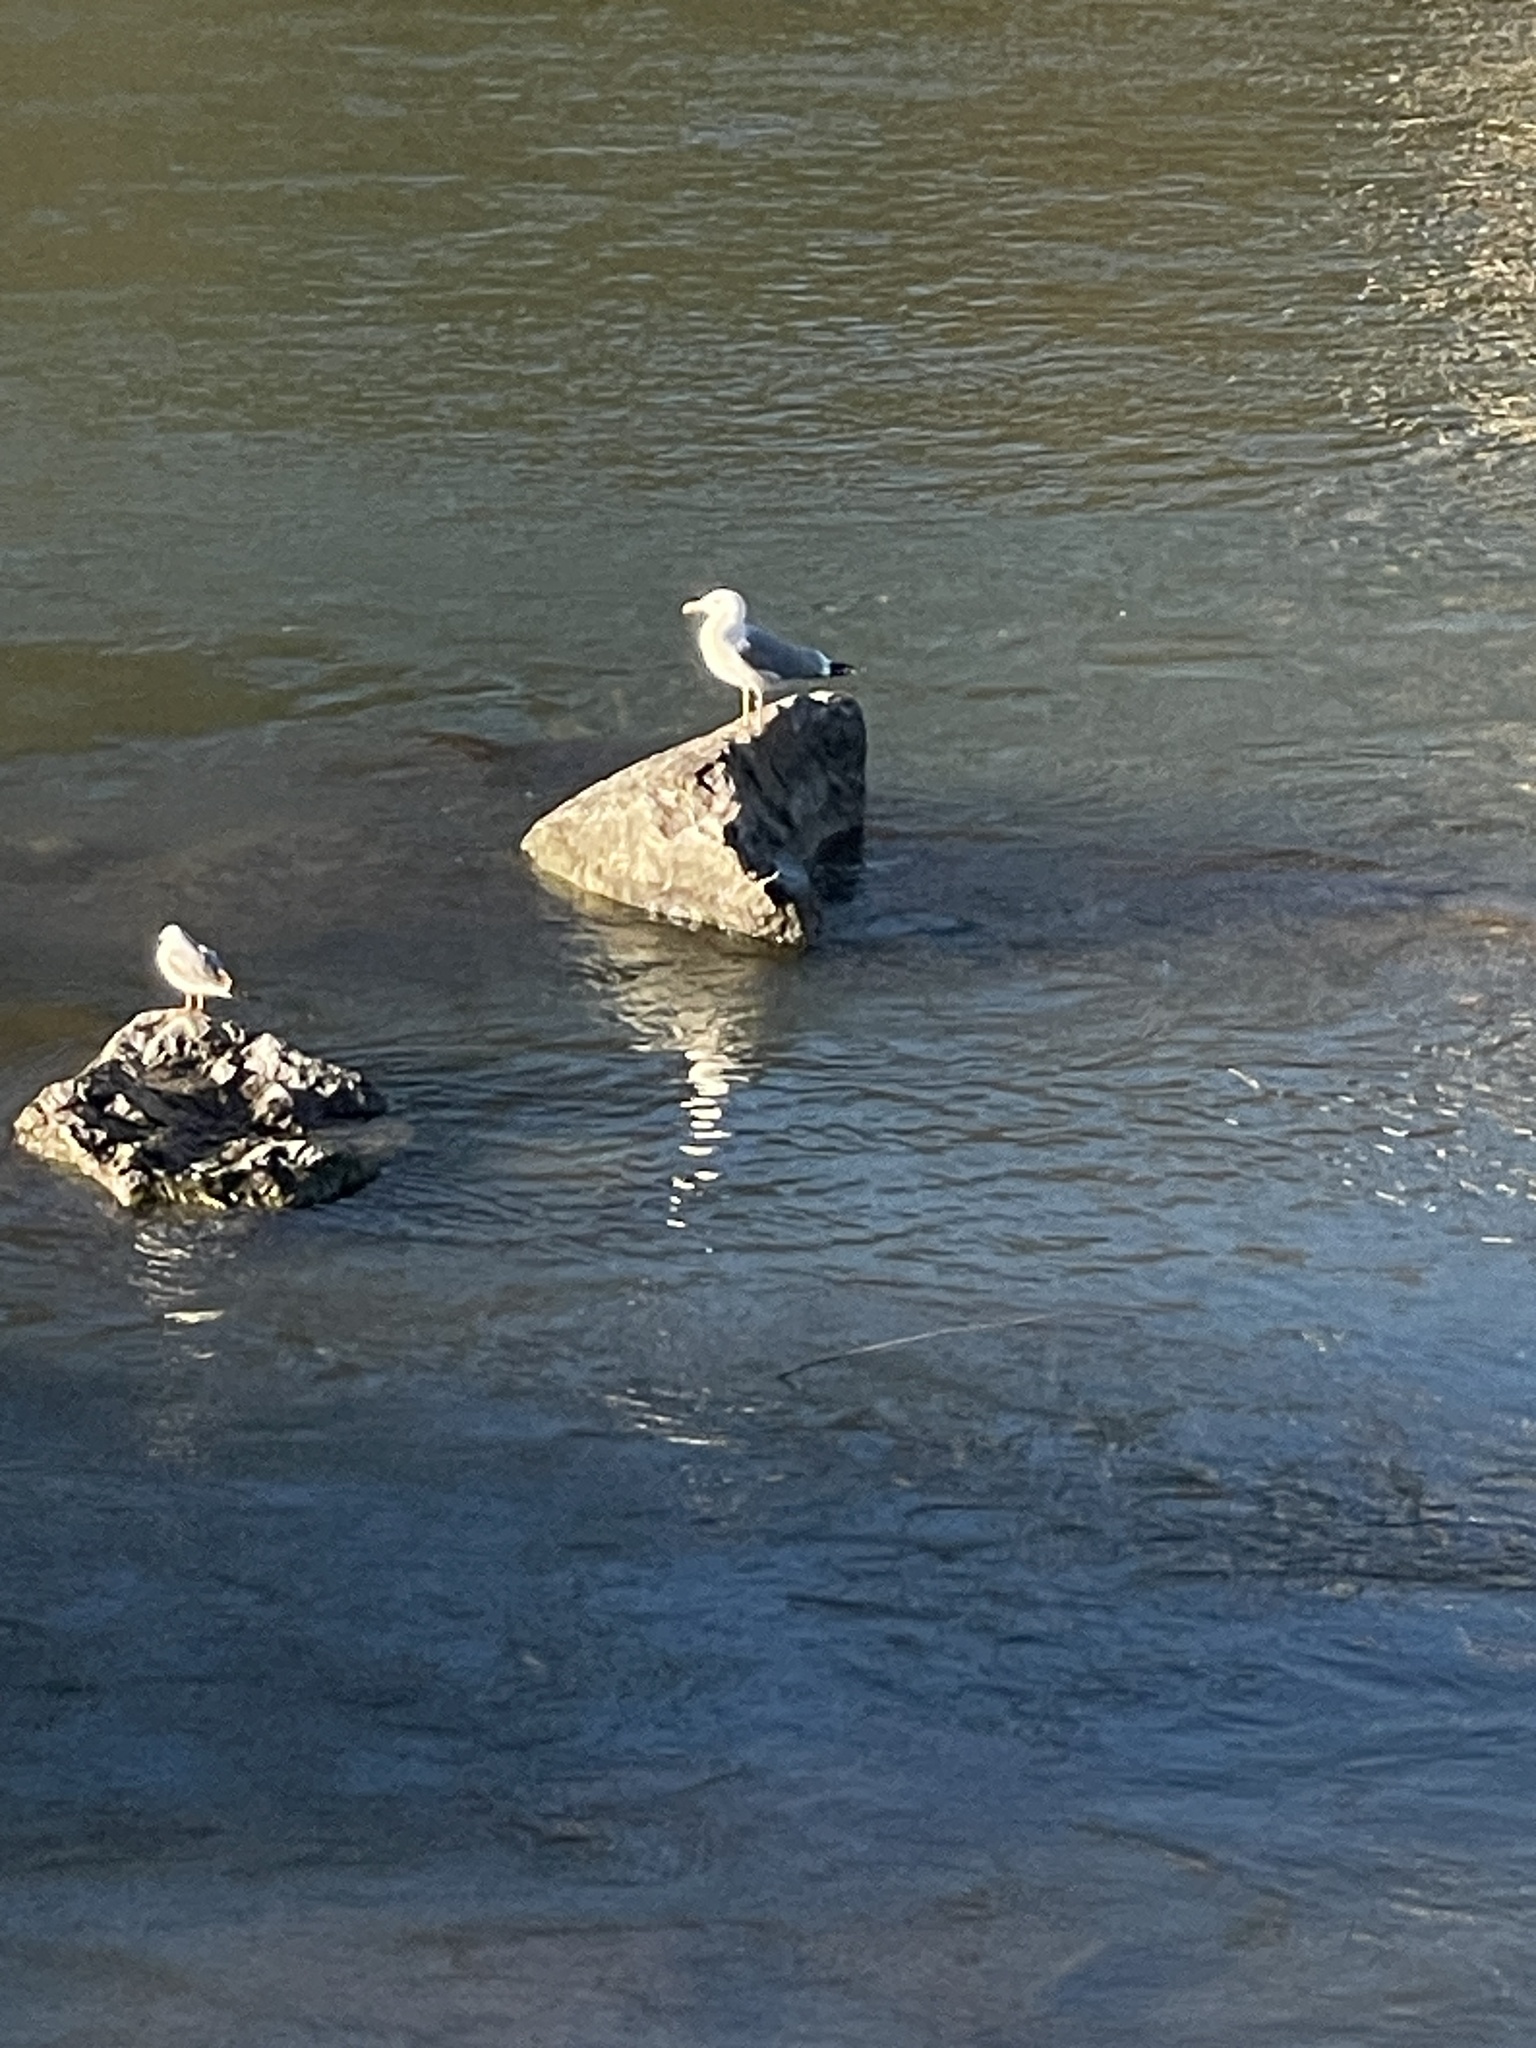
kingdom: Animalia
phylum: Chordata
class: Aves
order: Charadriiformes
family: Laridae
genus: Larus
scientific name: Larus michahellis
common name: Yellow-legged gull
